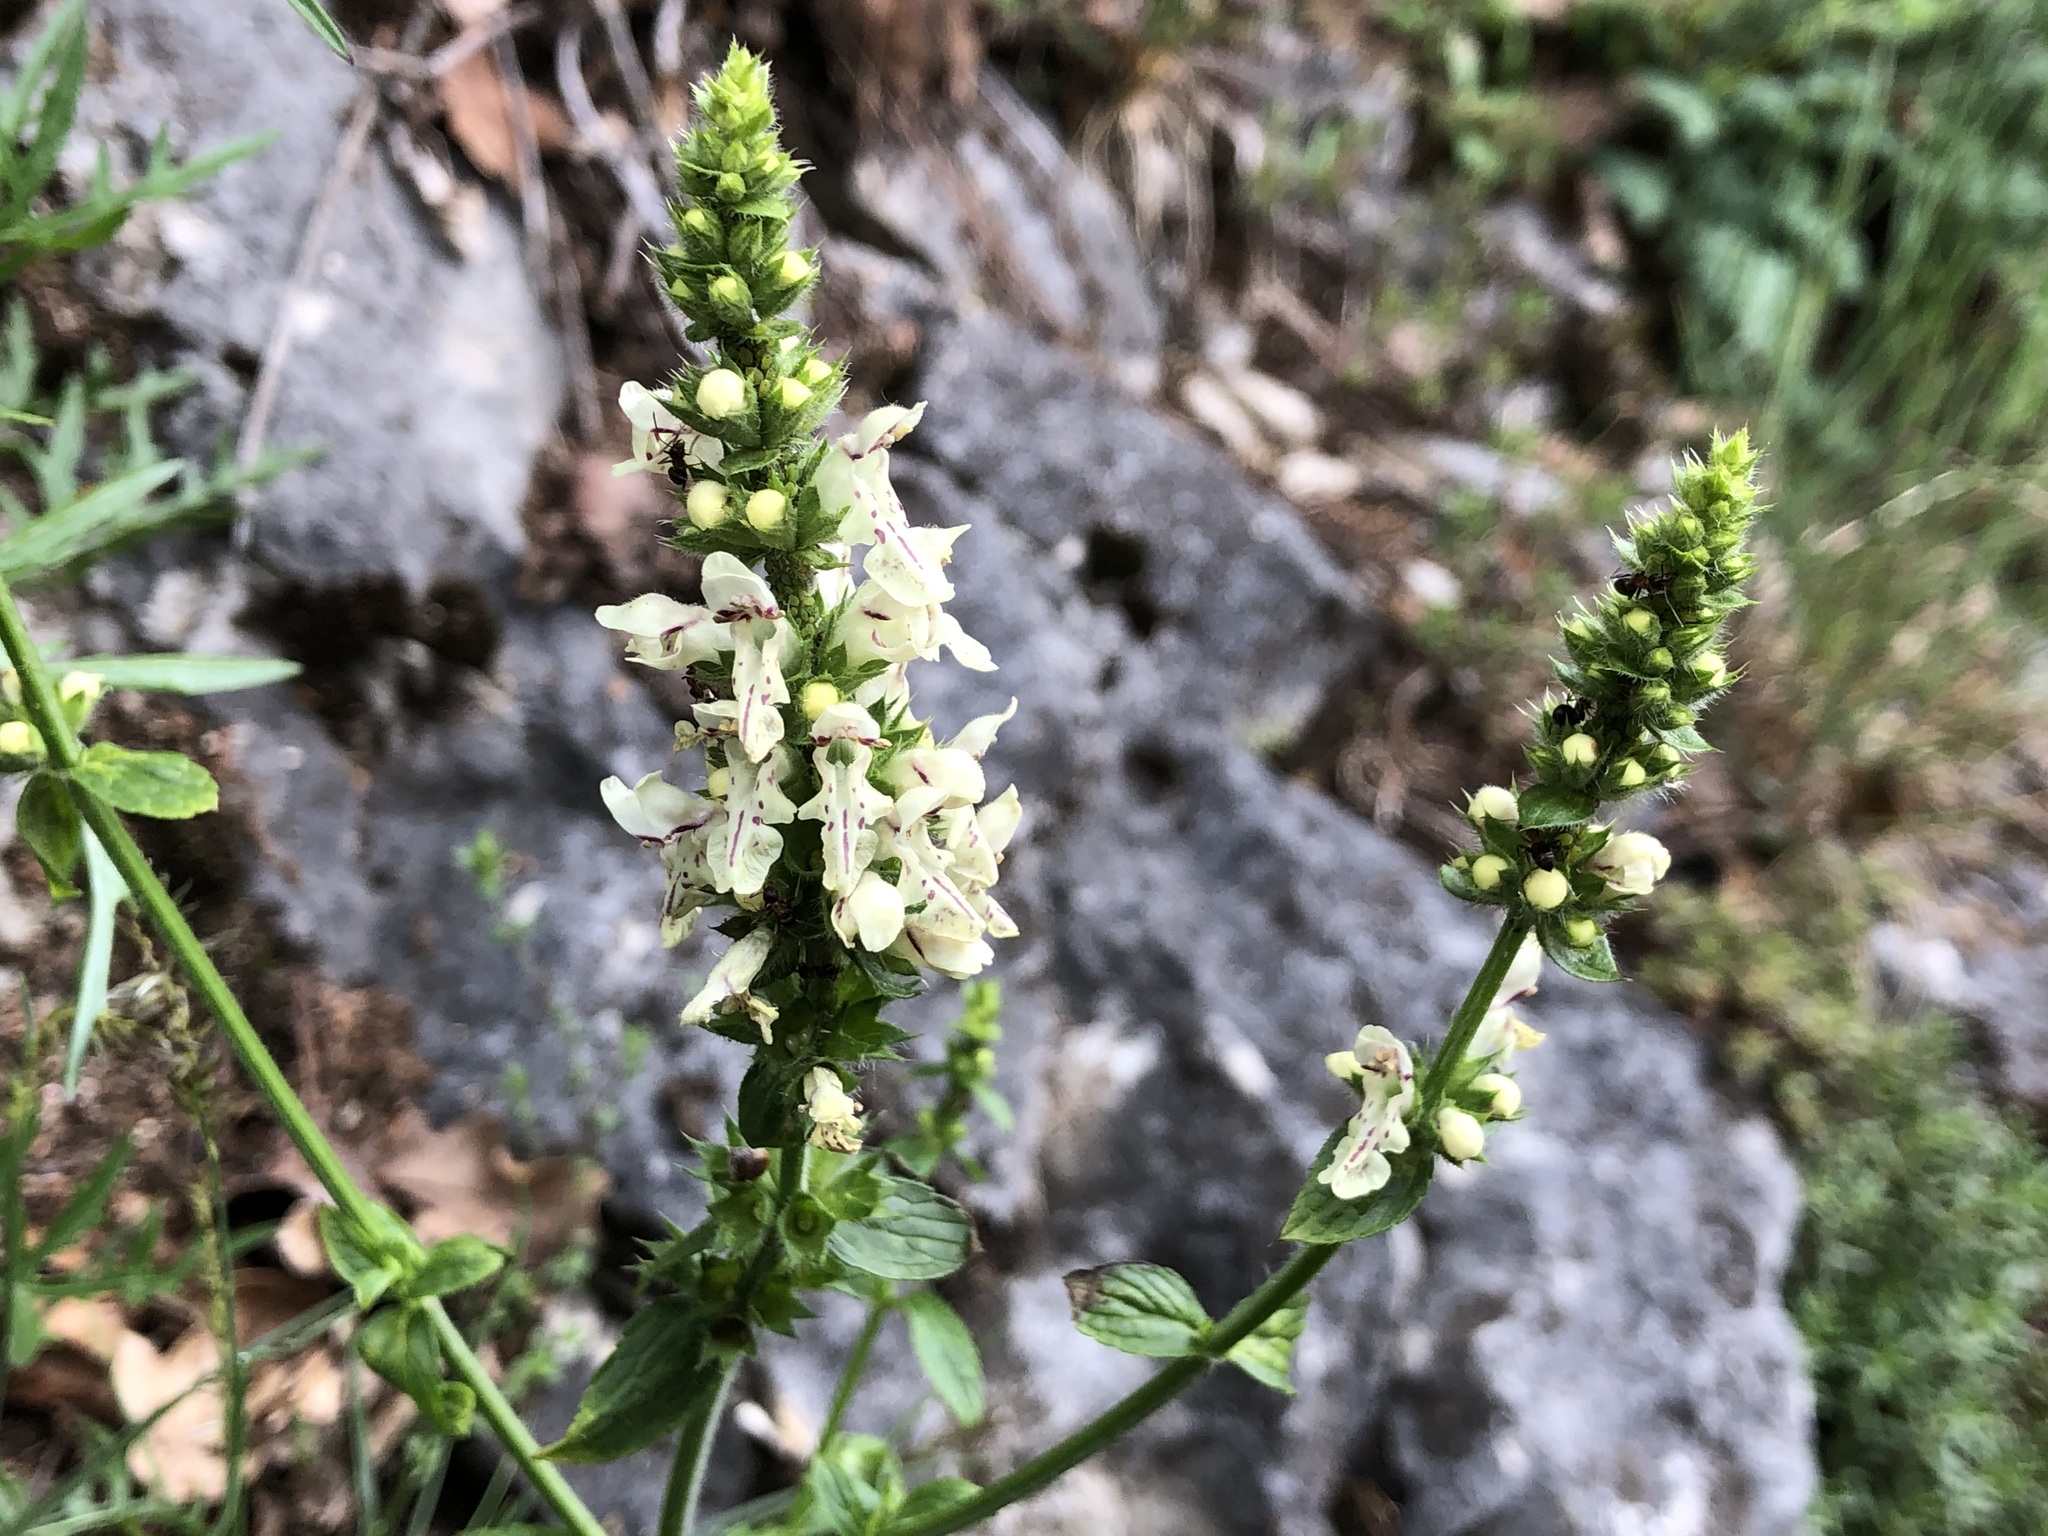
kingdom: Plantae
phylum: Tracheophyta
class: Magnoliopsida
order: Lamiales
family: Lamiaceae
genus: Stachys
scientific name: Stachys recta
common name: Perennial yellow-woundwort
